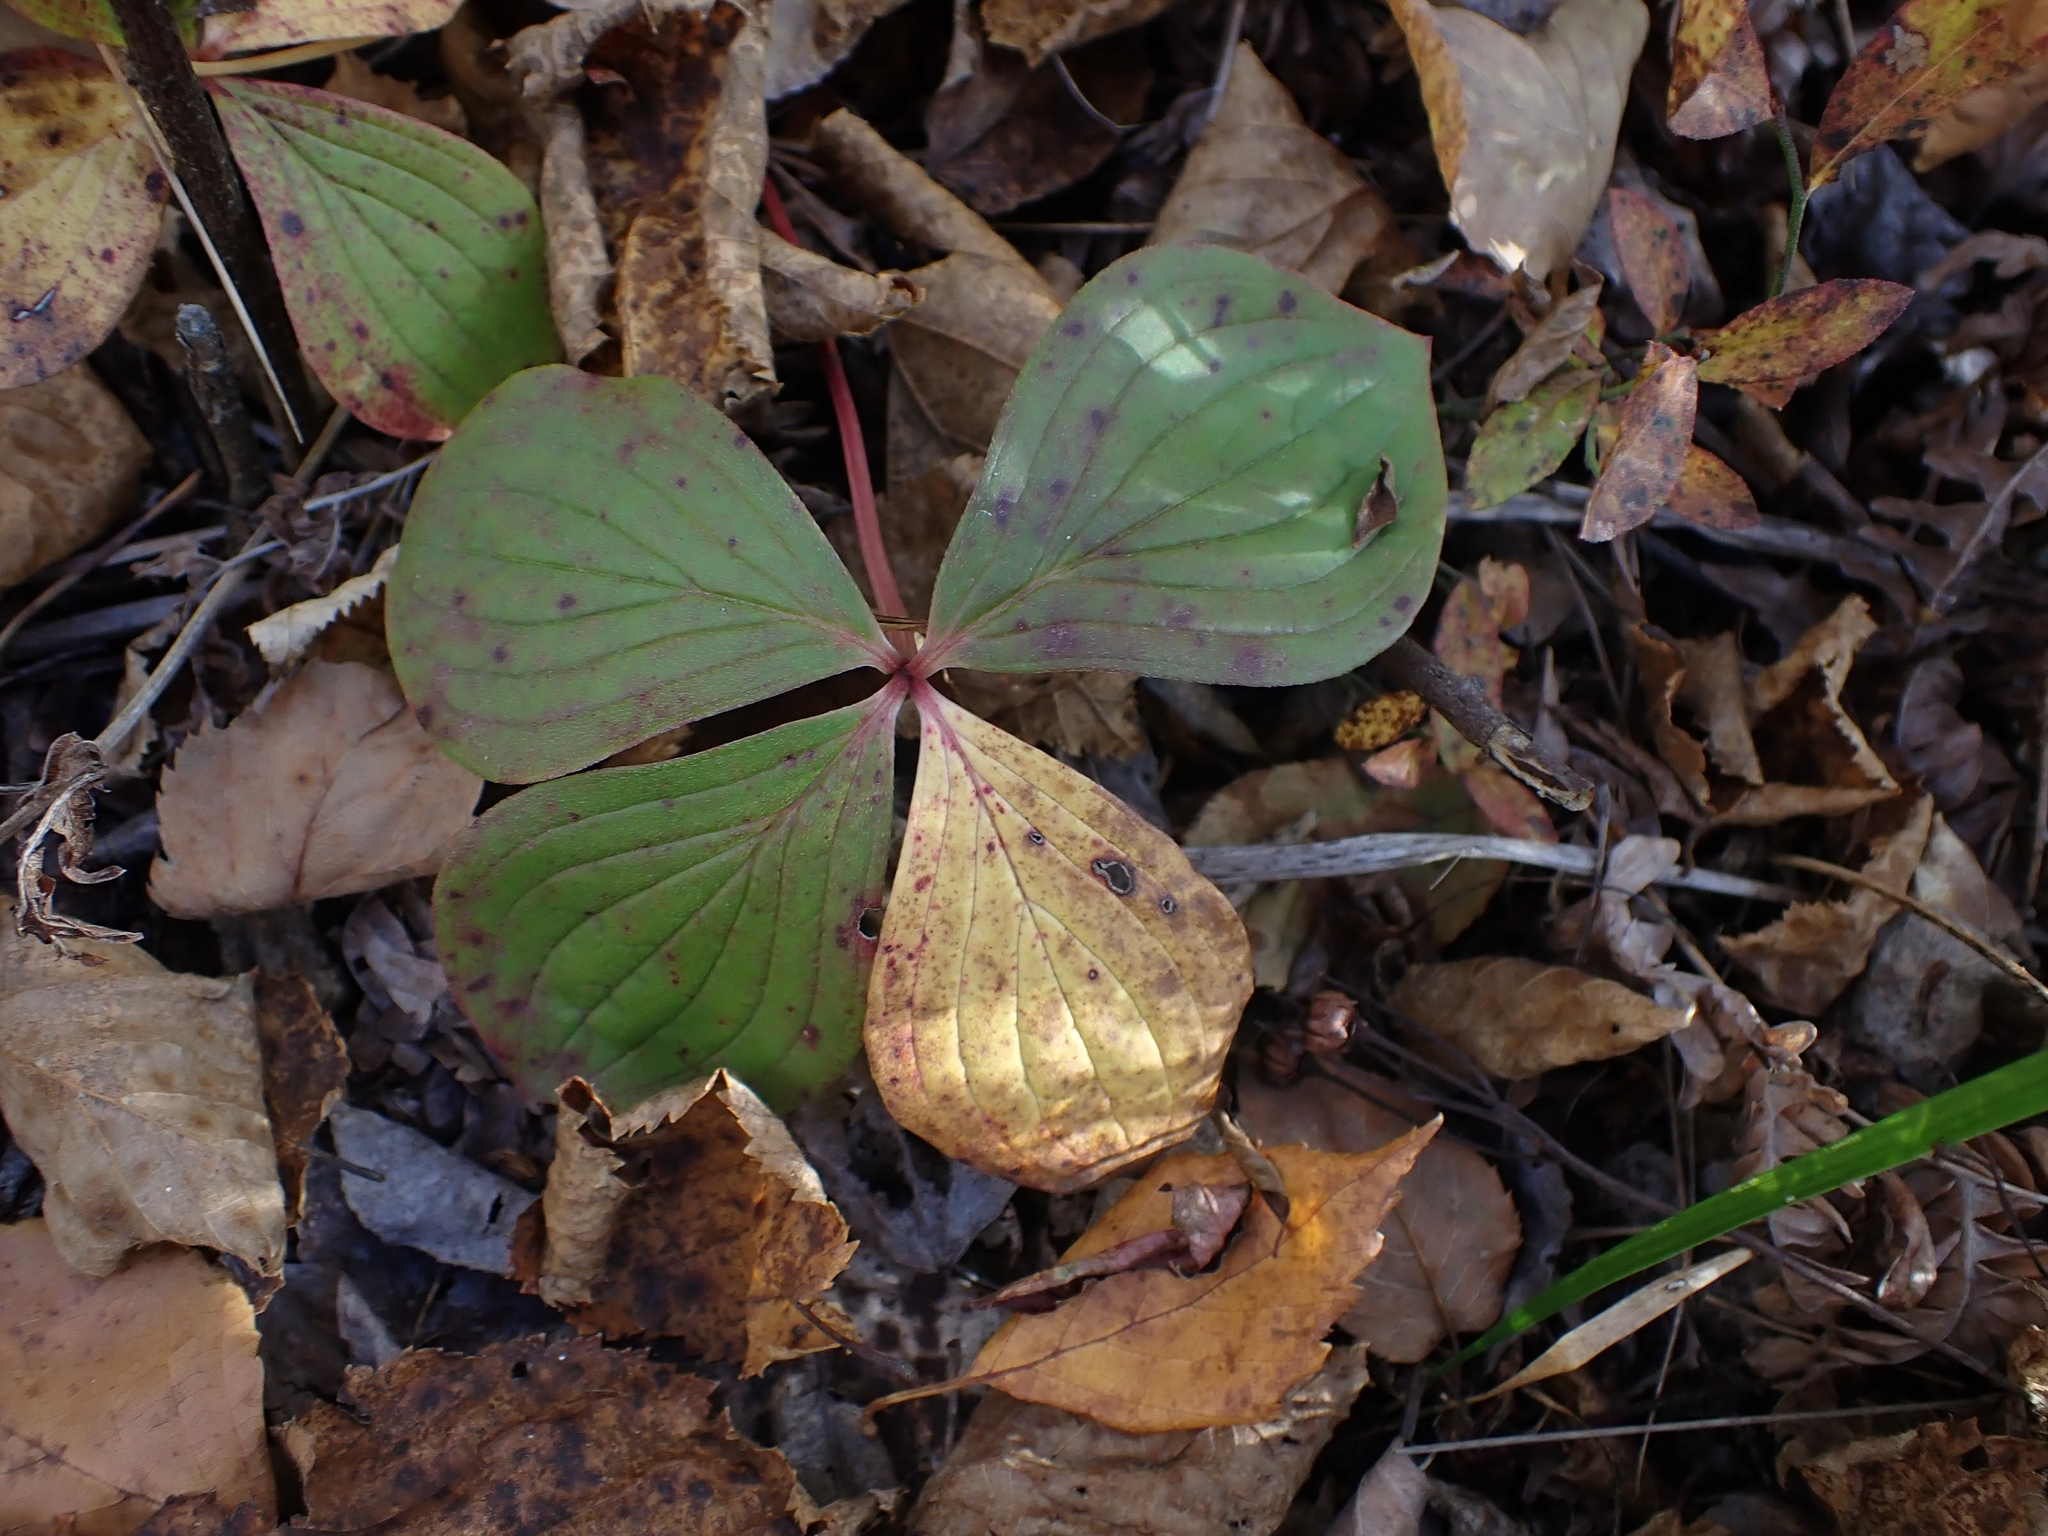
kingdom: Plantae
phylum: Tracheophyta
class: Magnoliopsida
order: Cornales
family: Cornaceae
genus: Cornus
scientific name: Cornus canadensis
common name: Creeping dogwood
